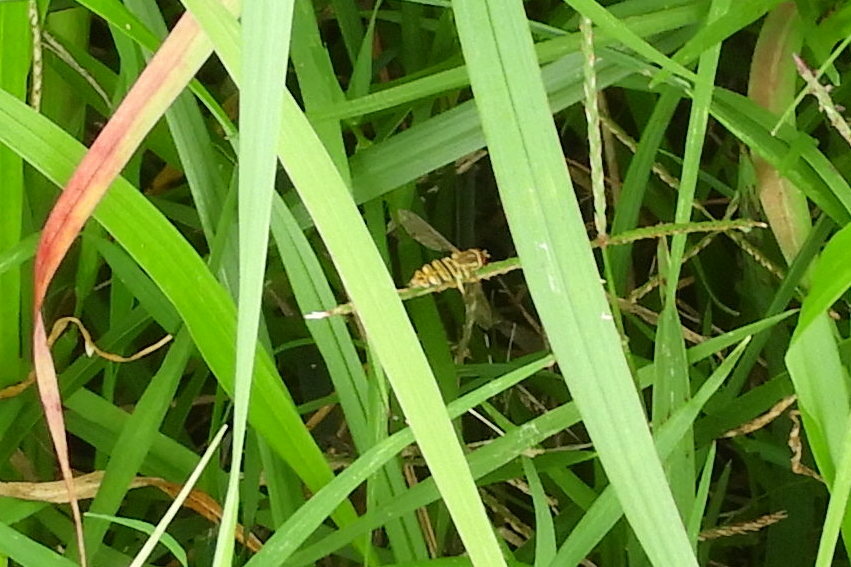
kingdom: Animalia
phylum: Arthropoda
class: Insecta
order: Diptera
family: Syrphidae
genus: Toxomerus
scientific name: Toxomerus politus
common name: Maize calligrapher
